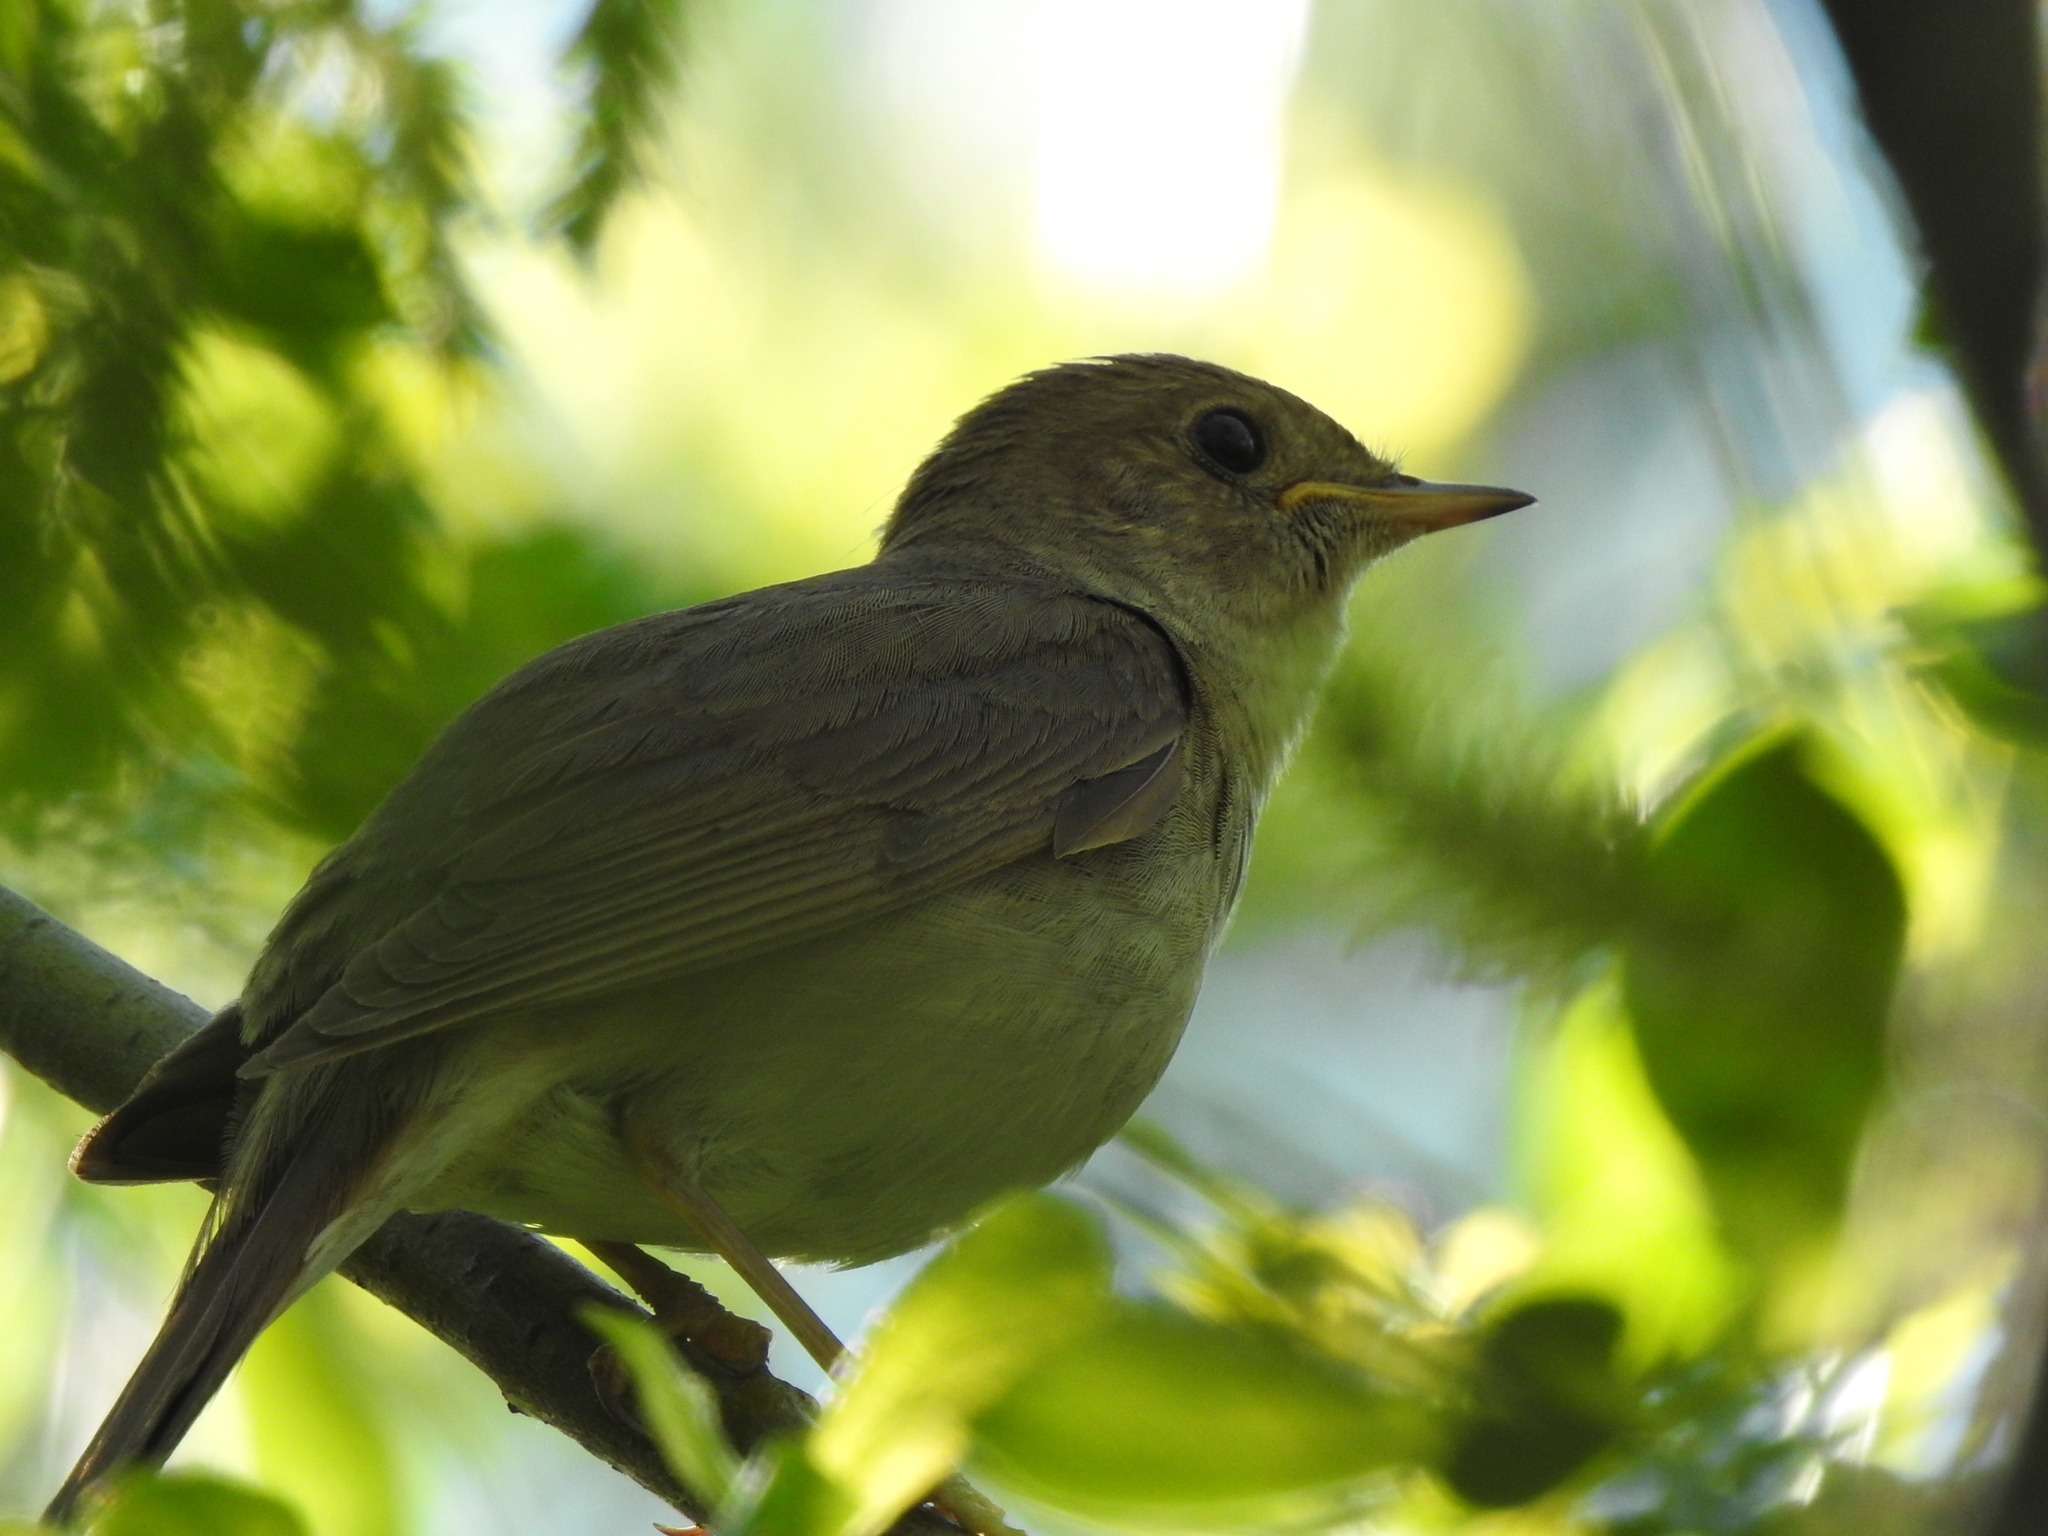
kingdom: Animalia
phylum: Chordata
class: Aves
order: Passeriformes
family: Muscicapidae
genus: Luscinia
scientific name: Luscinia luscinia
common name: Thrush nightingale
